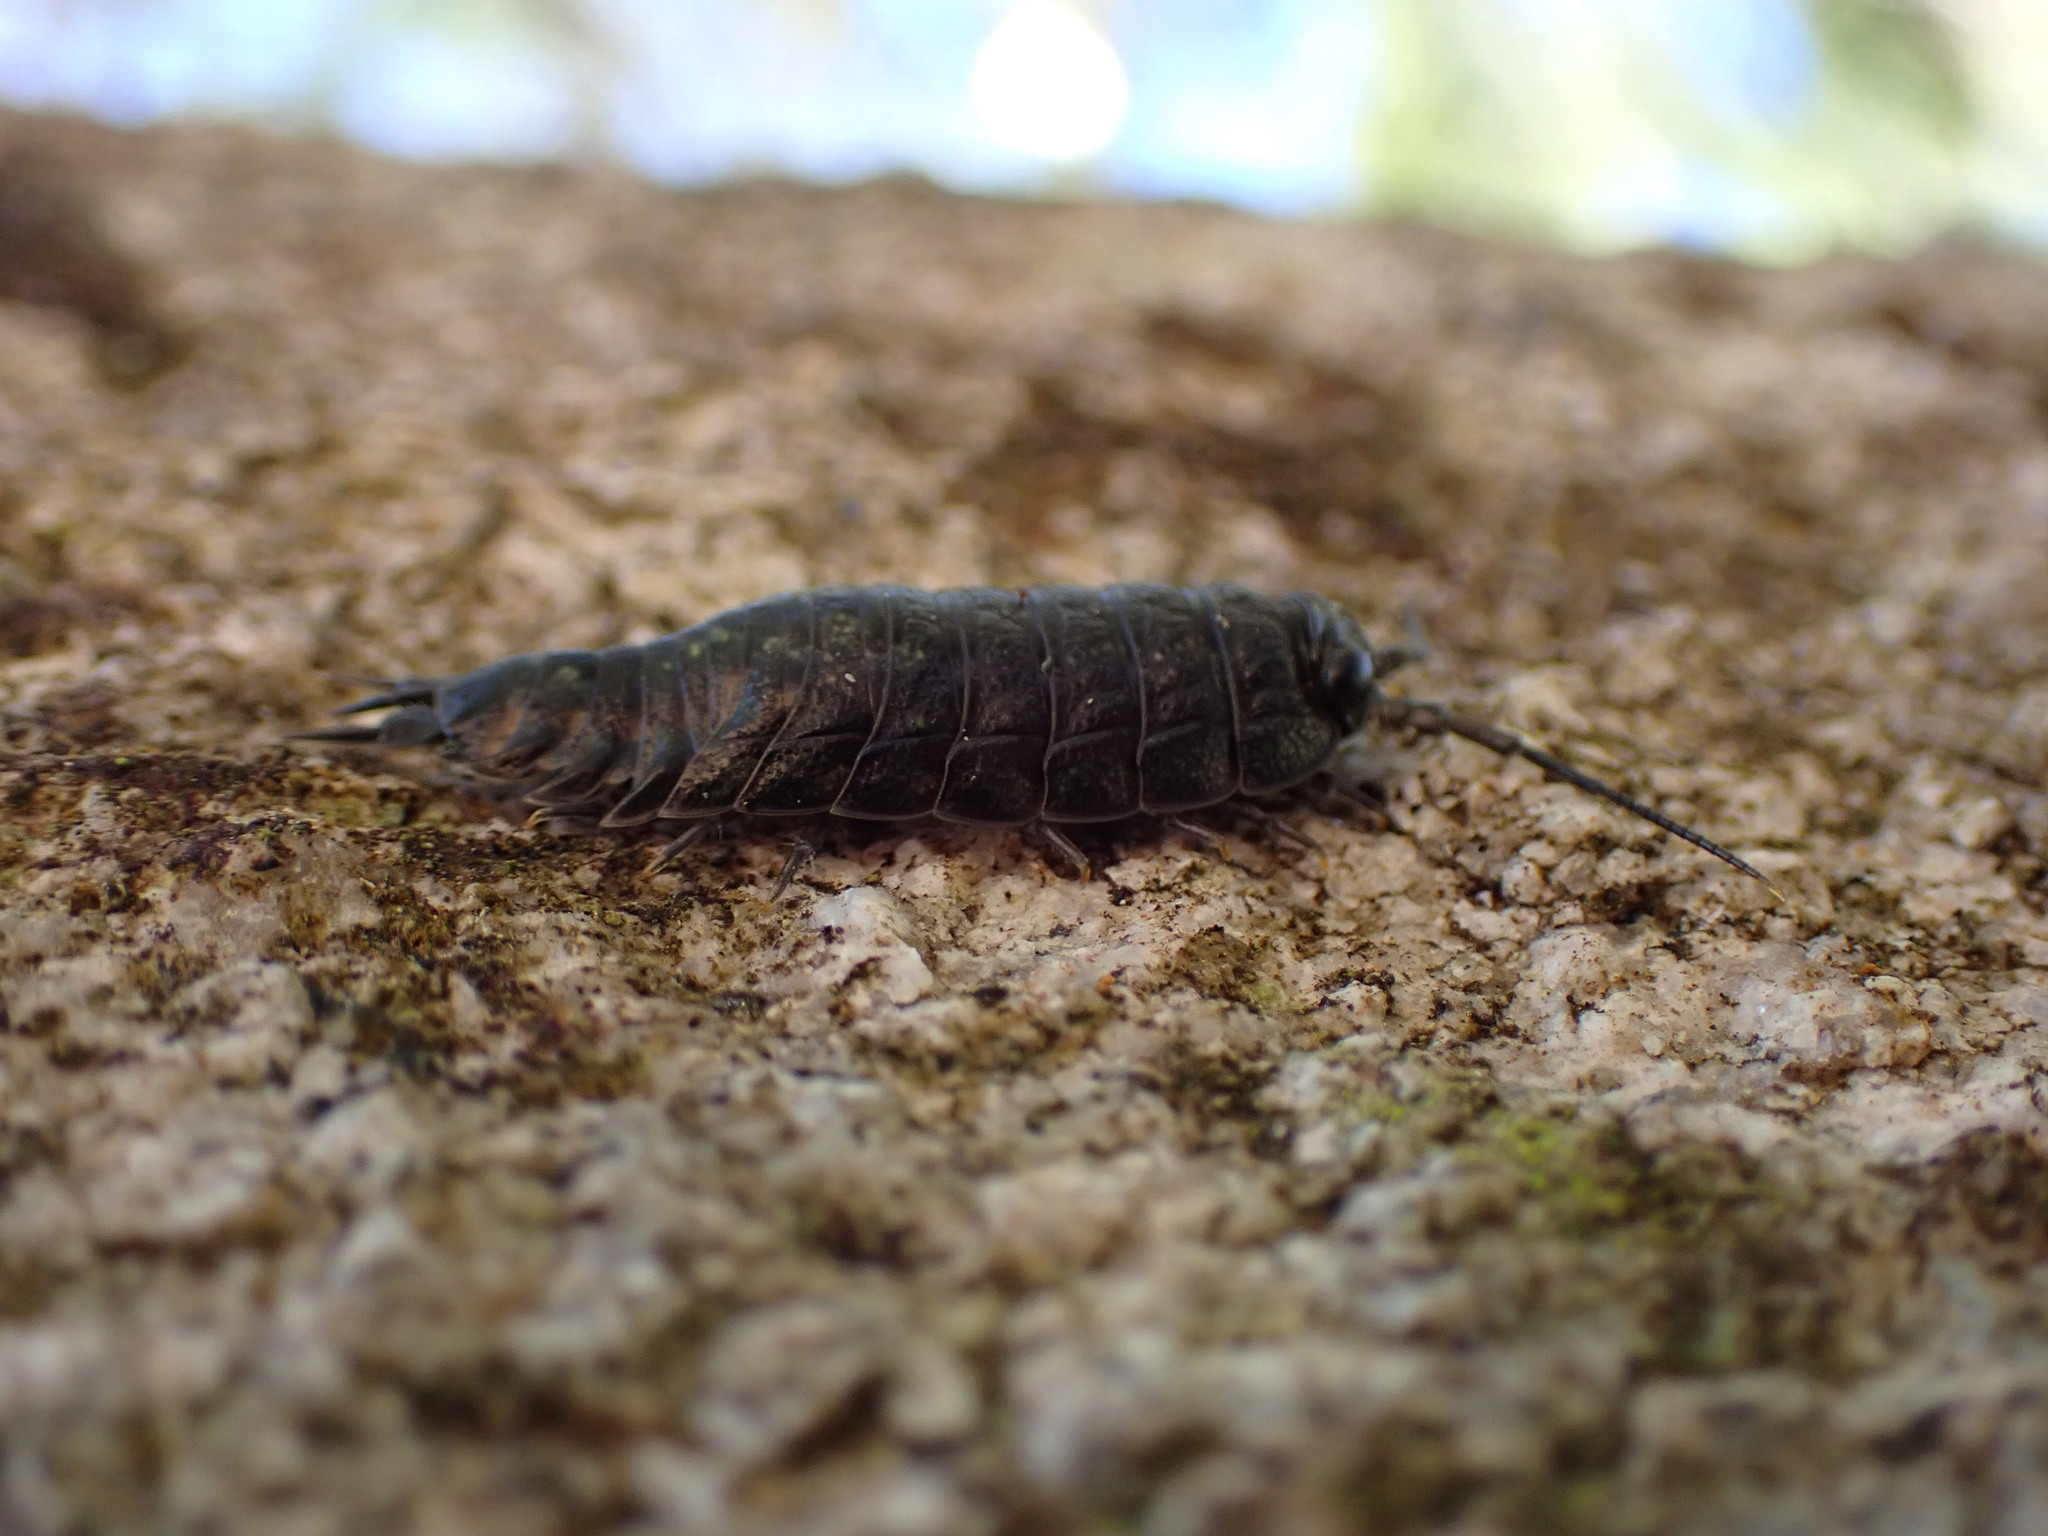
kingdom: Animalia
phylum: Arthropoda
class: Malacostraca
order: Isopoda
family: Ligiidae
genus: Ligia
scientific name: Ligia pallasii
